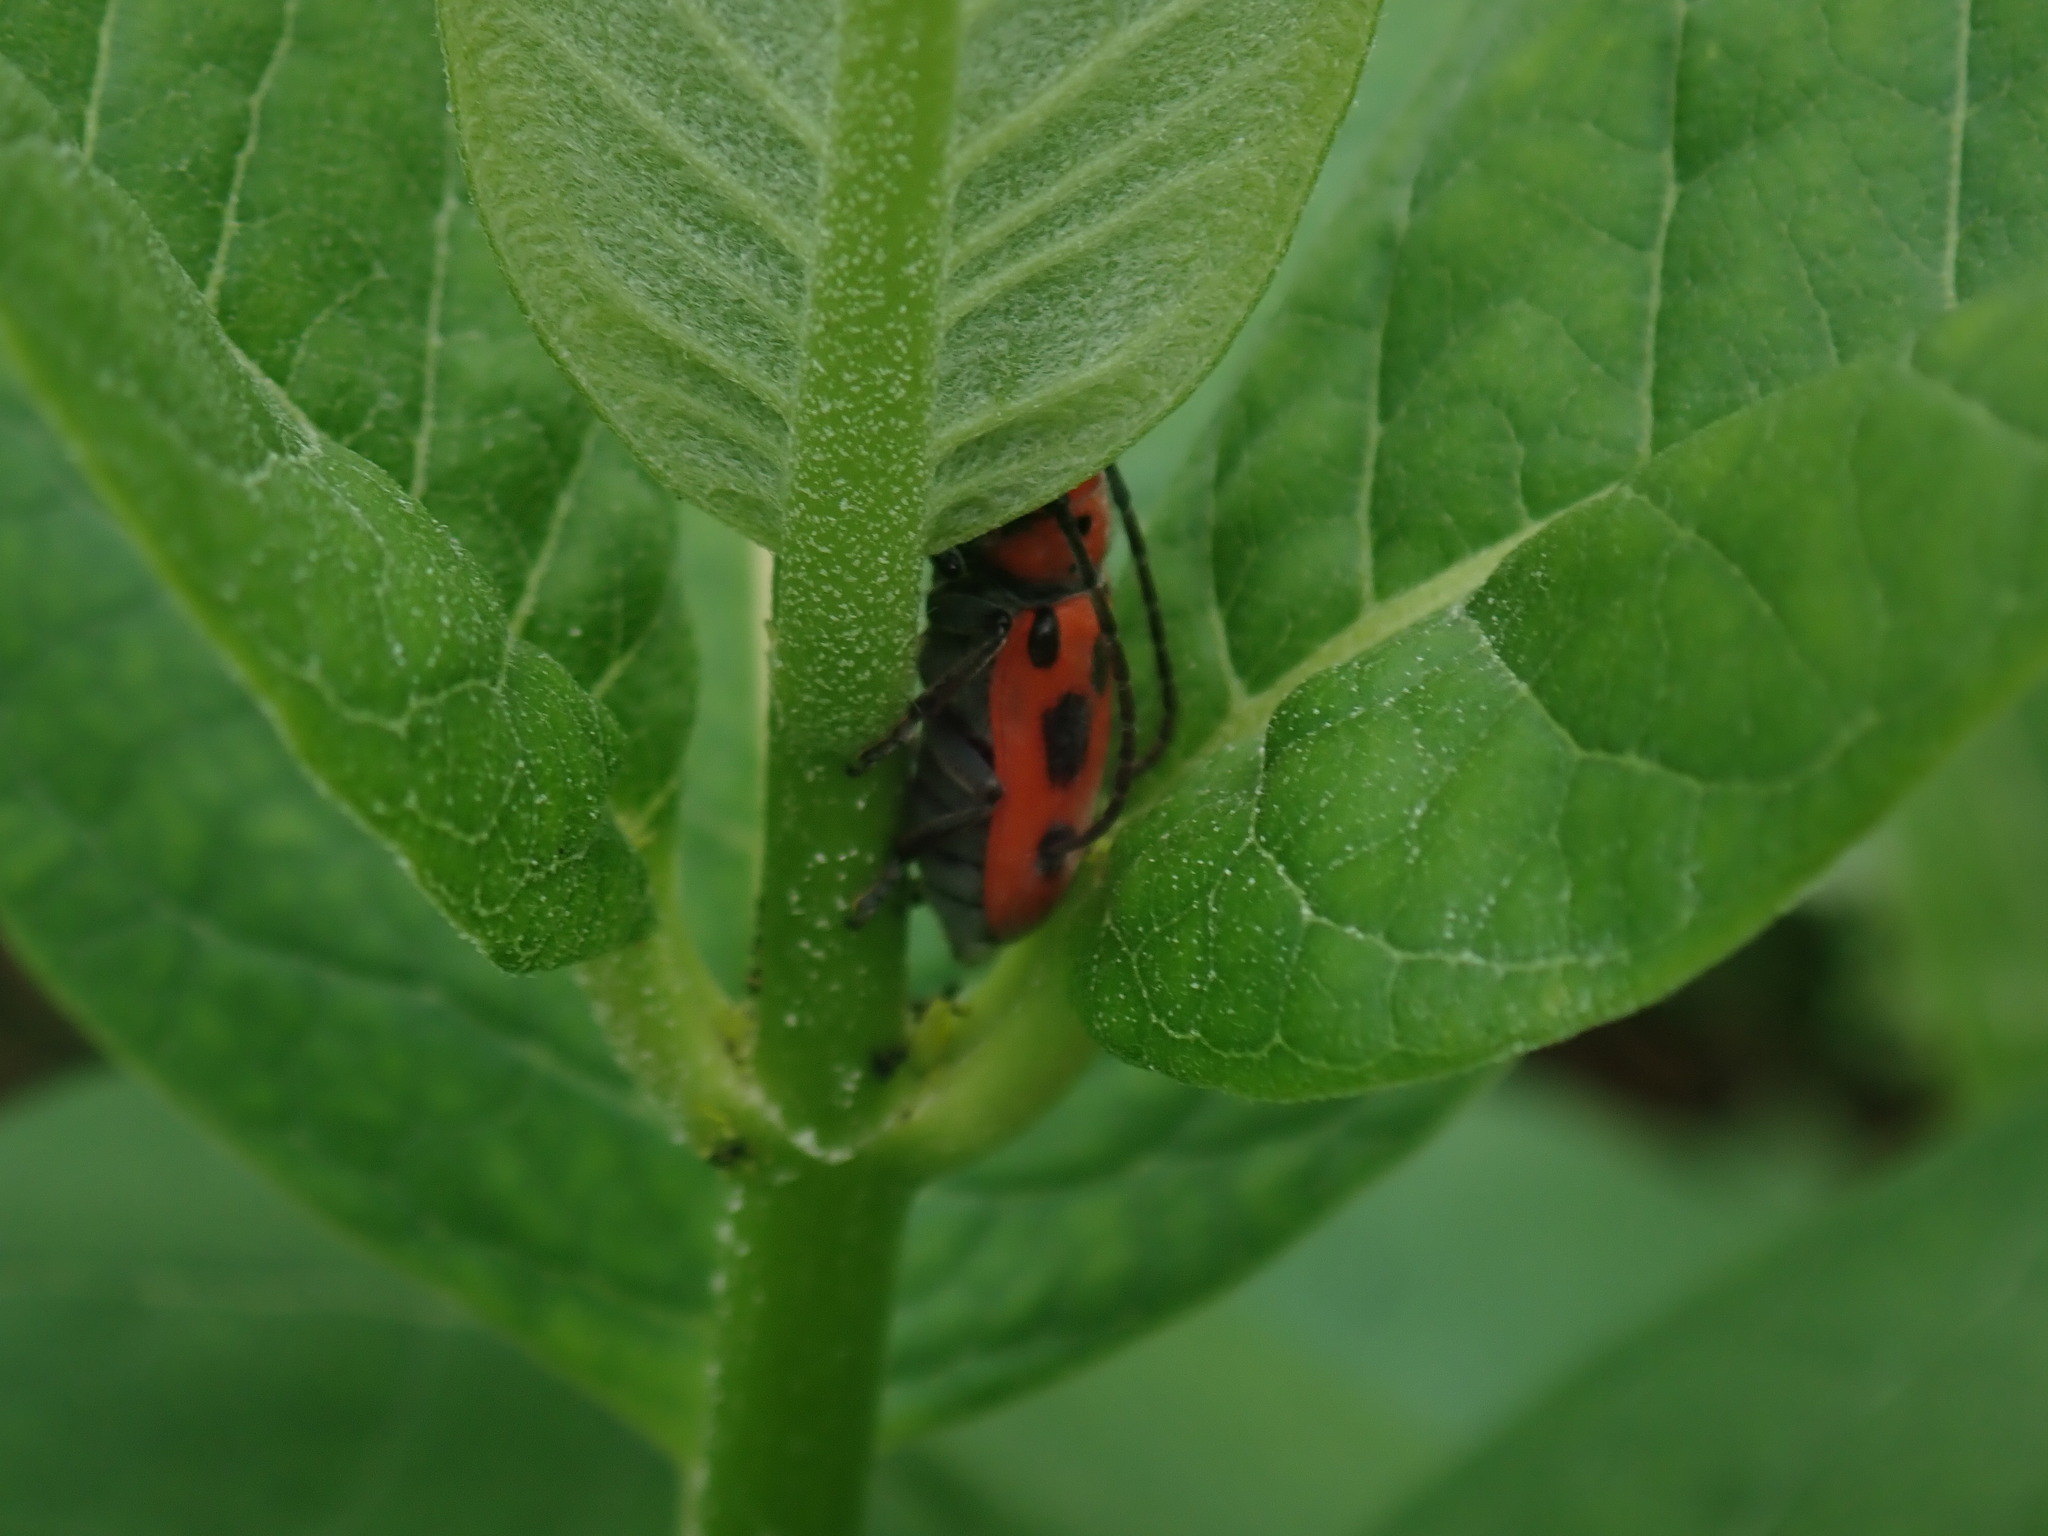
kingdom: Animalia
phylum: Arthropoda
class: Insecta
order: Coleoptera
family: Cerambycidae
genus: Tetraopes
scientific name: Tetraopes tetrophthalmus
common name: Red milkweed beetle
